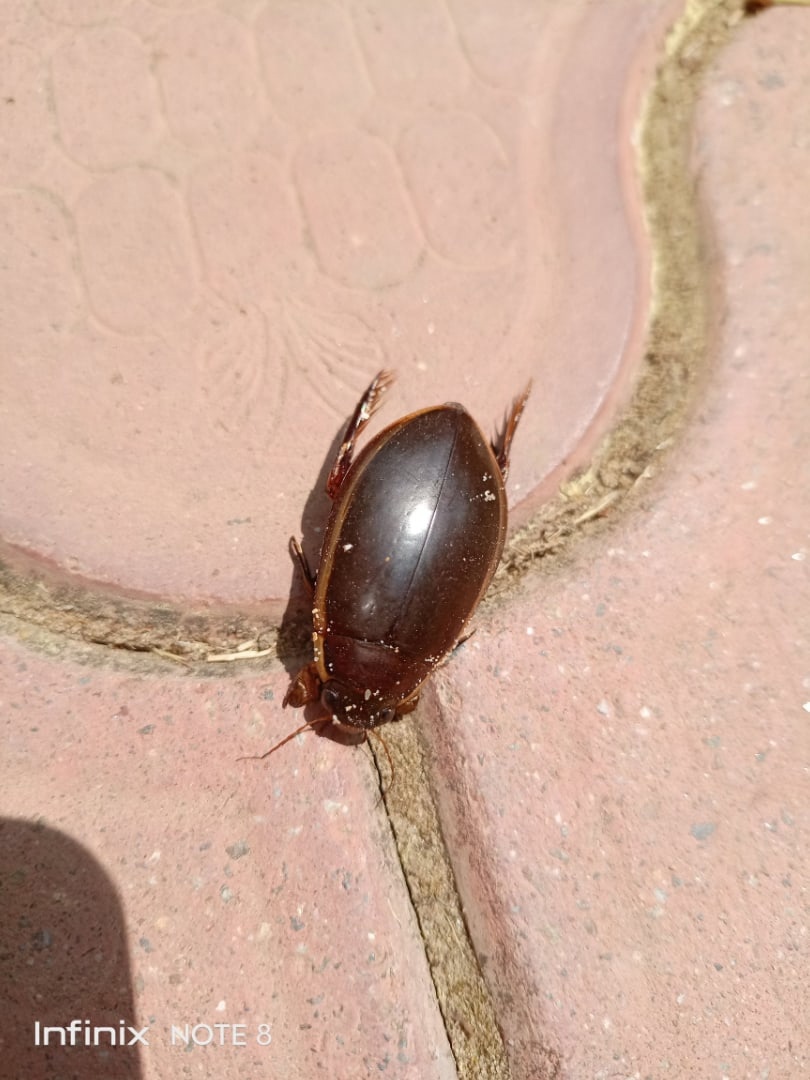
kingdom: Animalia
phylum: Arthropoda
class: Insecta
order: Coleoptera
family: Dytiscidae
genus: Cybister
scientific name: Cybister lateralimarginalis
